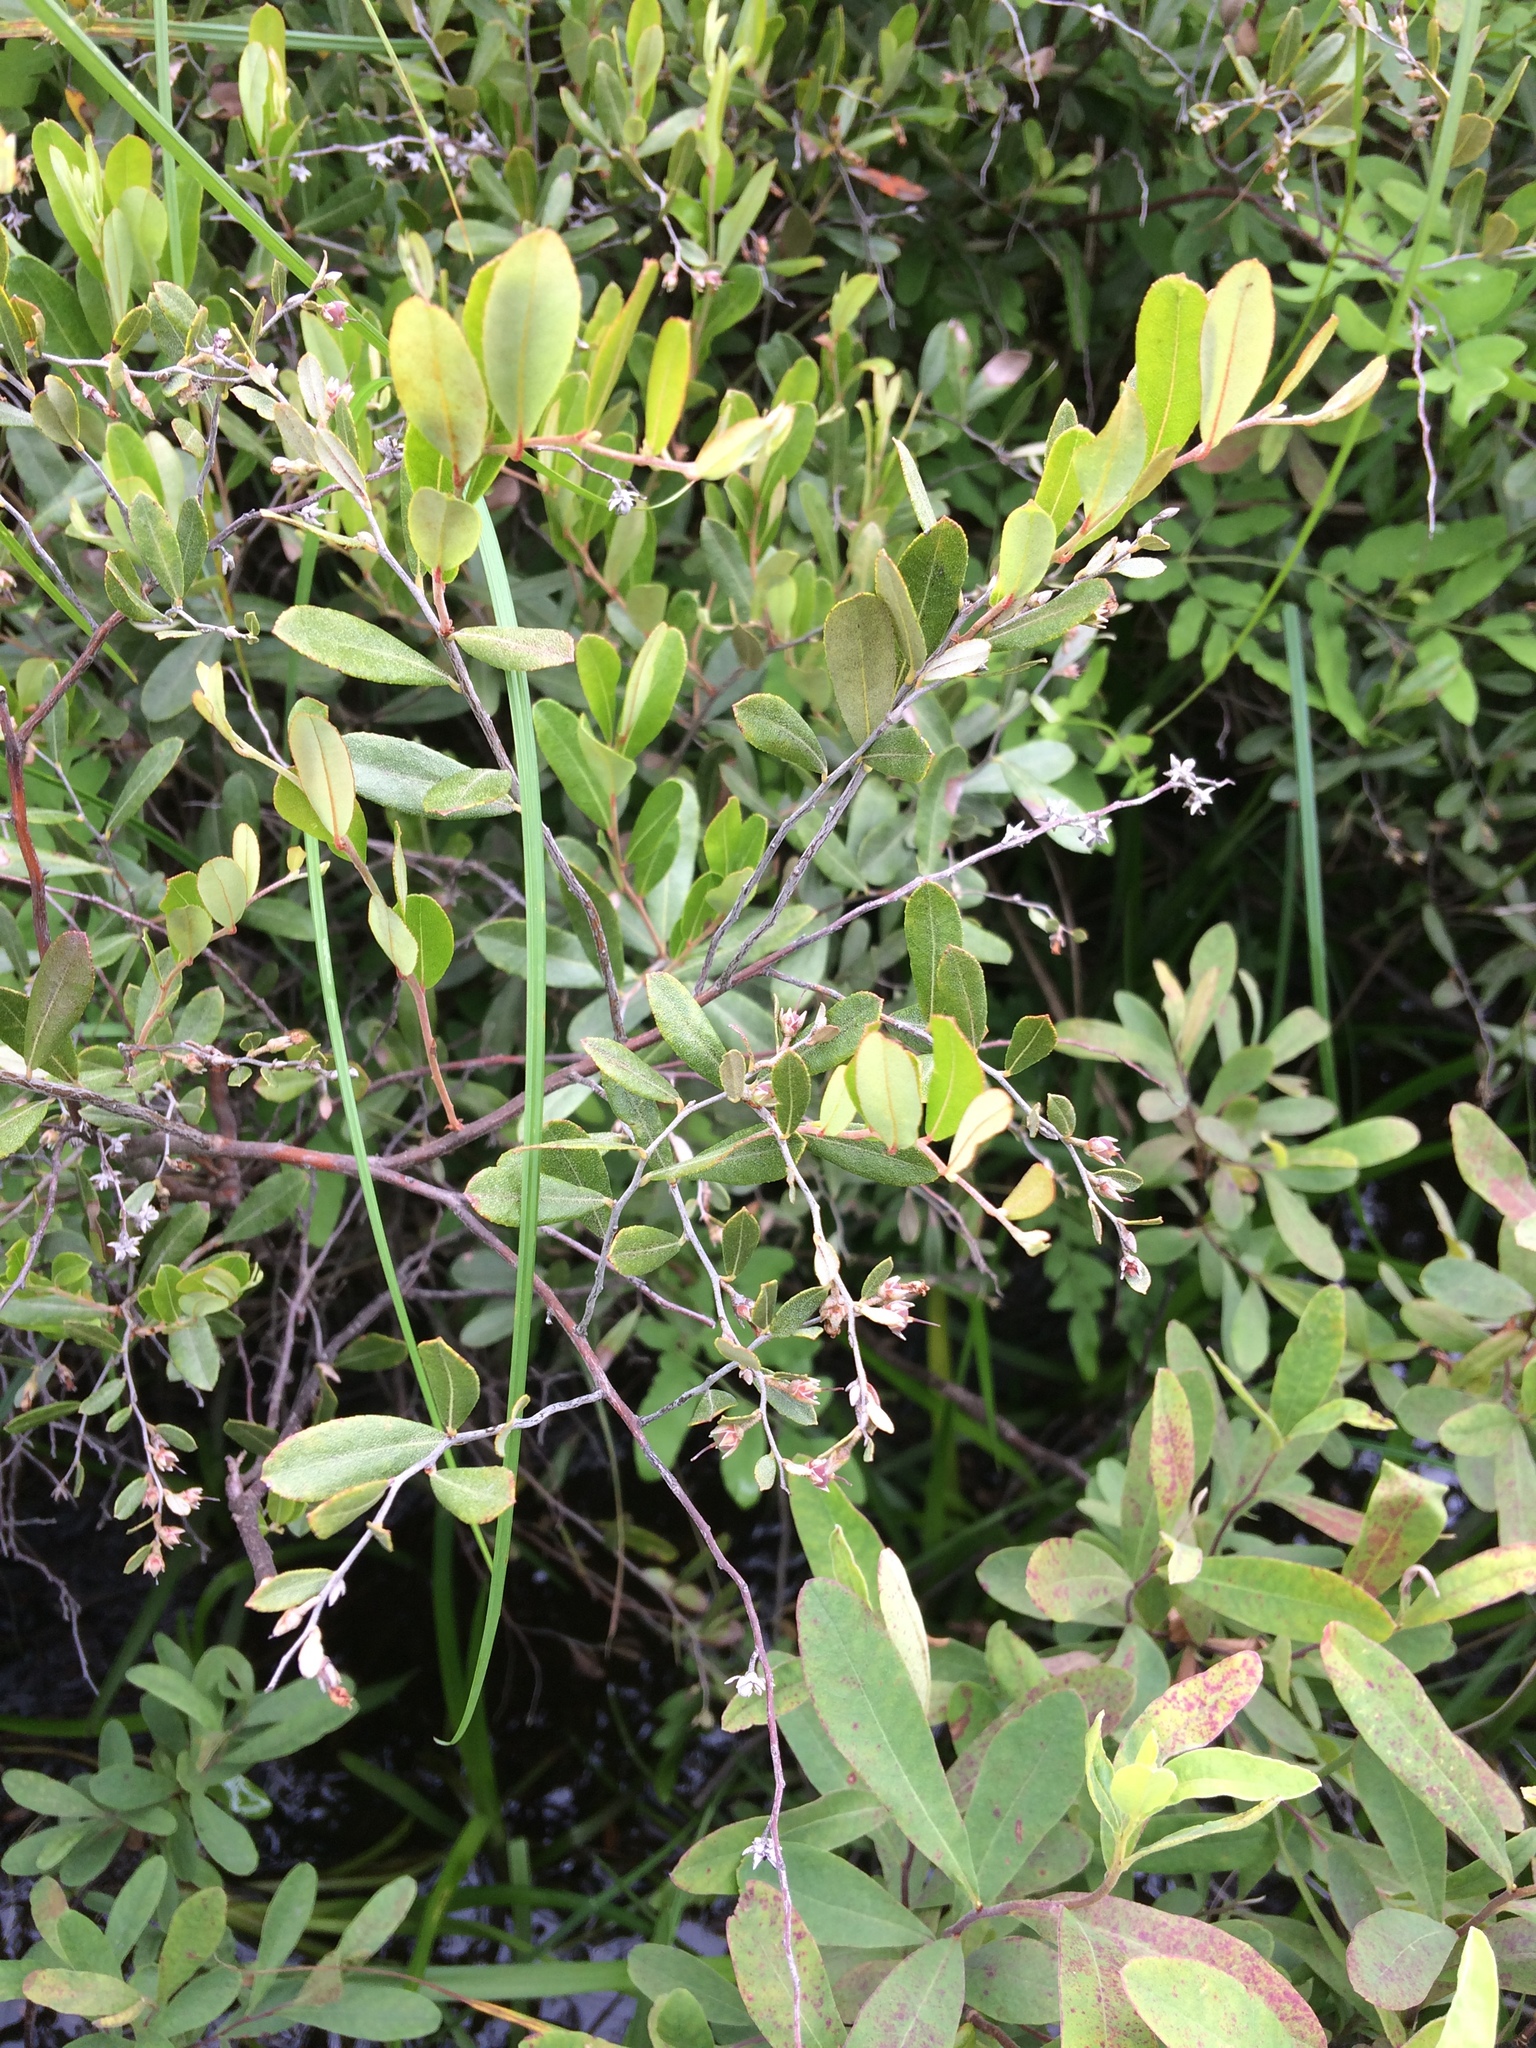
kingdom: Plantae
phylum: Tracheophyta
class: Magnoliopsida
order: Ericales
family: Ericaceae
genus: Chamaedaphne
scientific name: Chamaedaphne calyculata
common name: Leatherleaf
